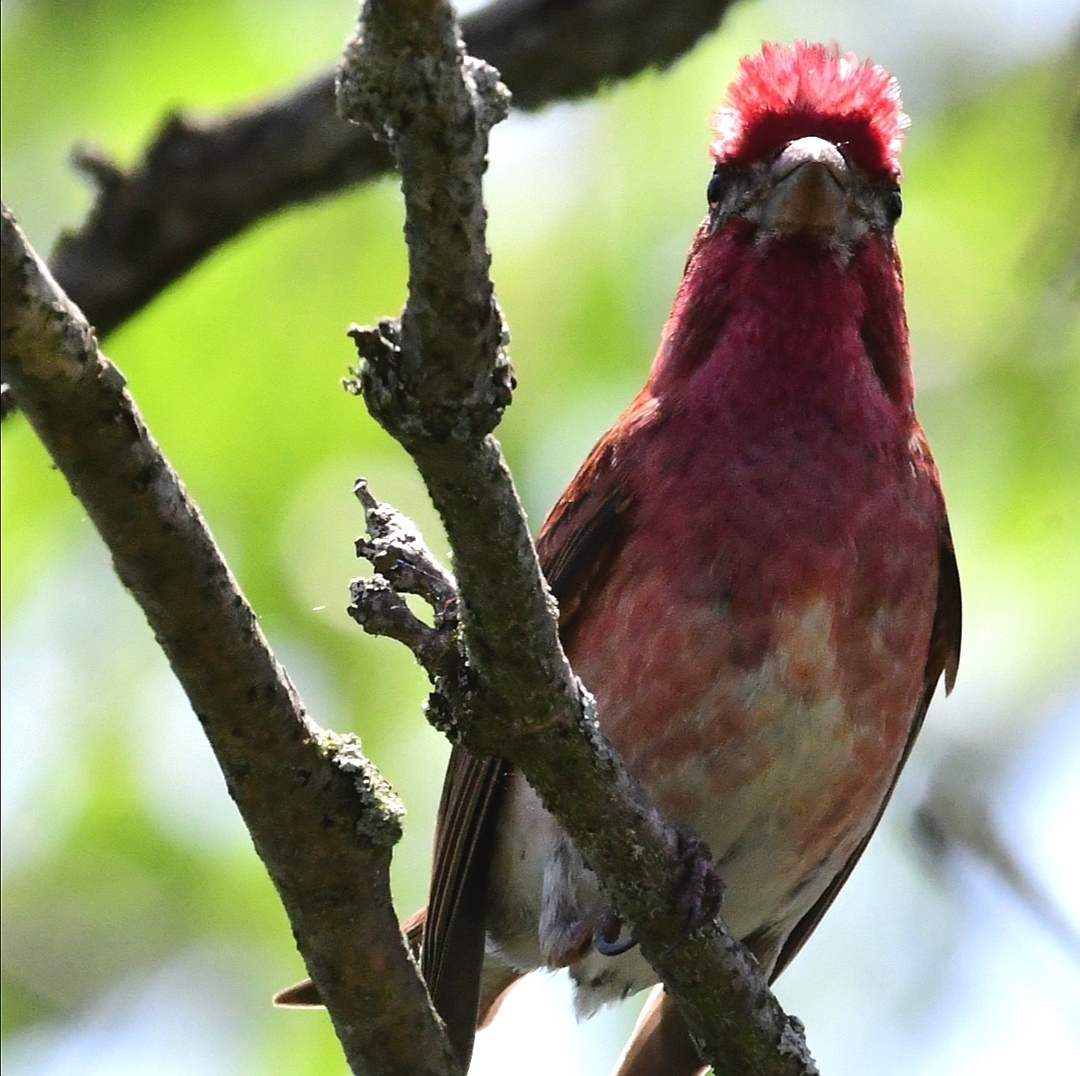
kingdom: Animalia
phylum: Chordata
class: Aves
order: Passeriformes
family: Fringillidae
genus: Haemorhous
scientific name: Haemorhous purpureus
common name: Purple finch
